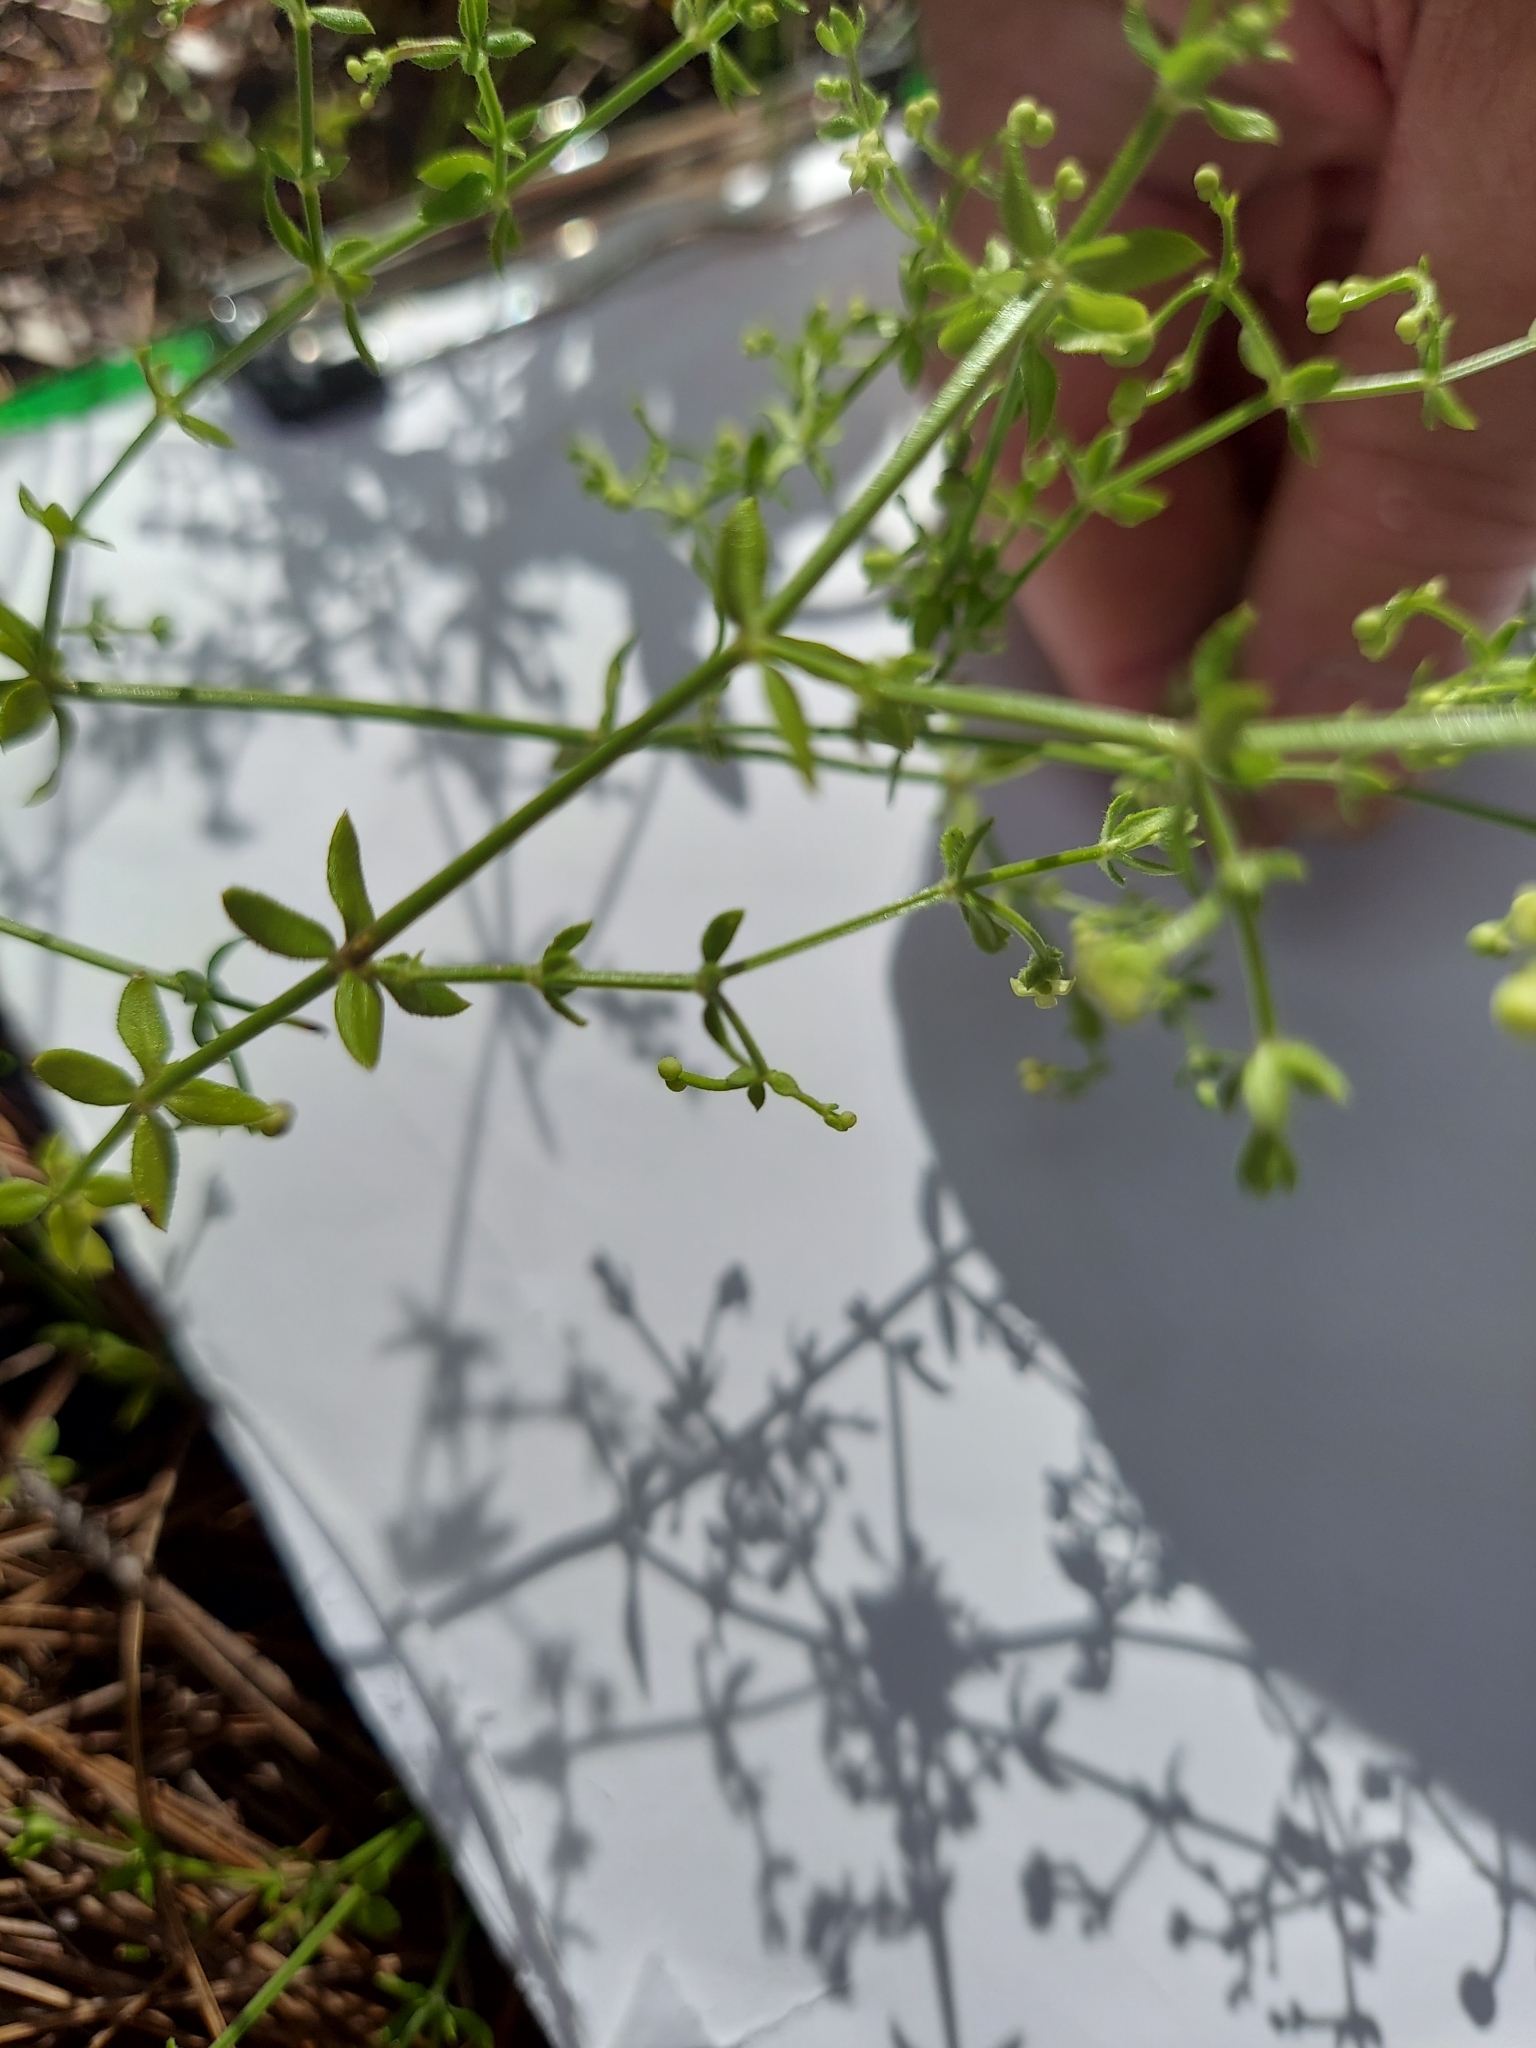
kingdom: Plantae
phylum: Tracheophyta
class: Magnoliopsida
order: Gentianales
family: Rubiaceae
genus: Galium
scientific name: Galium bermudense
